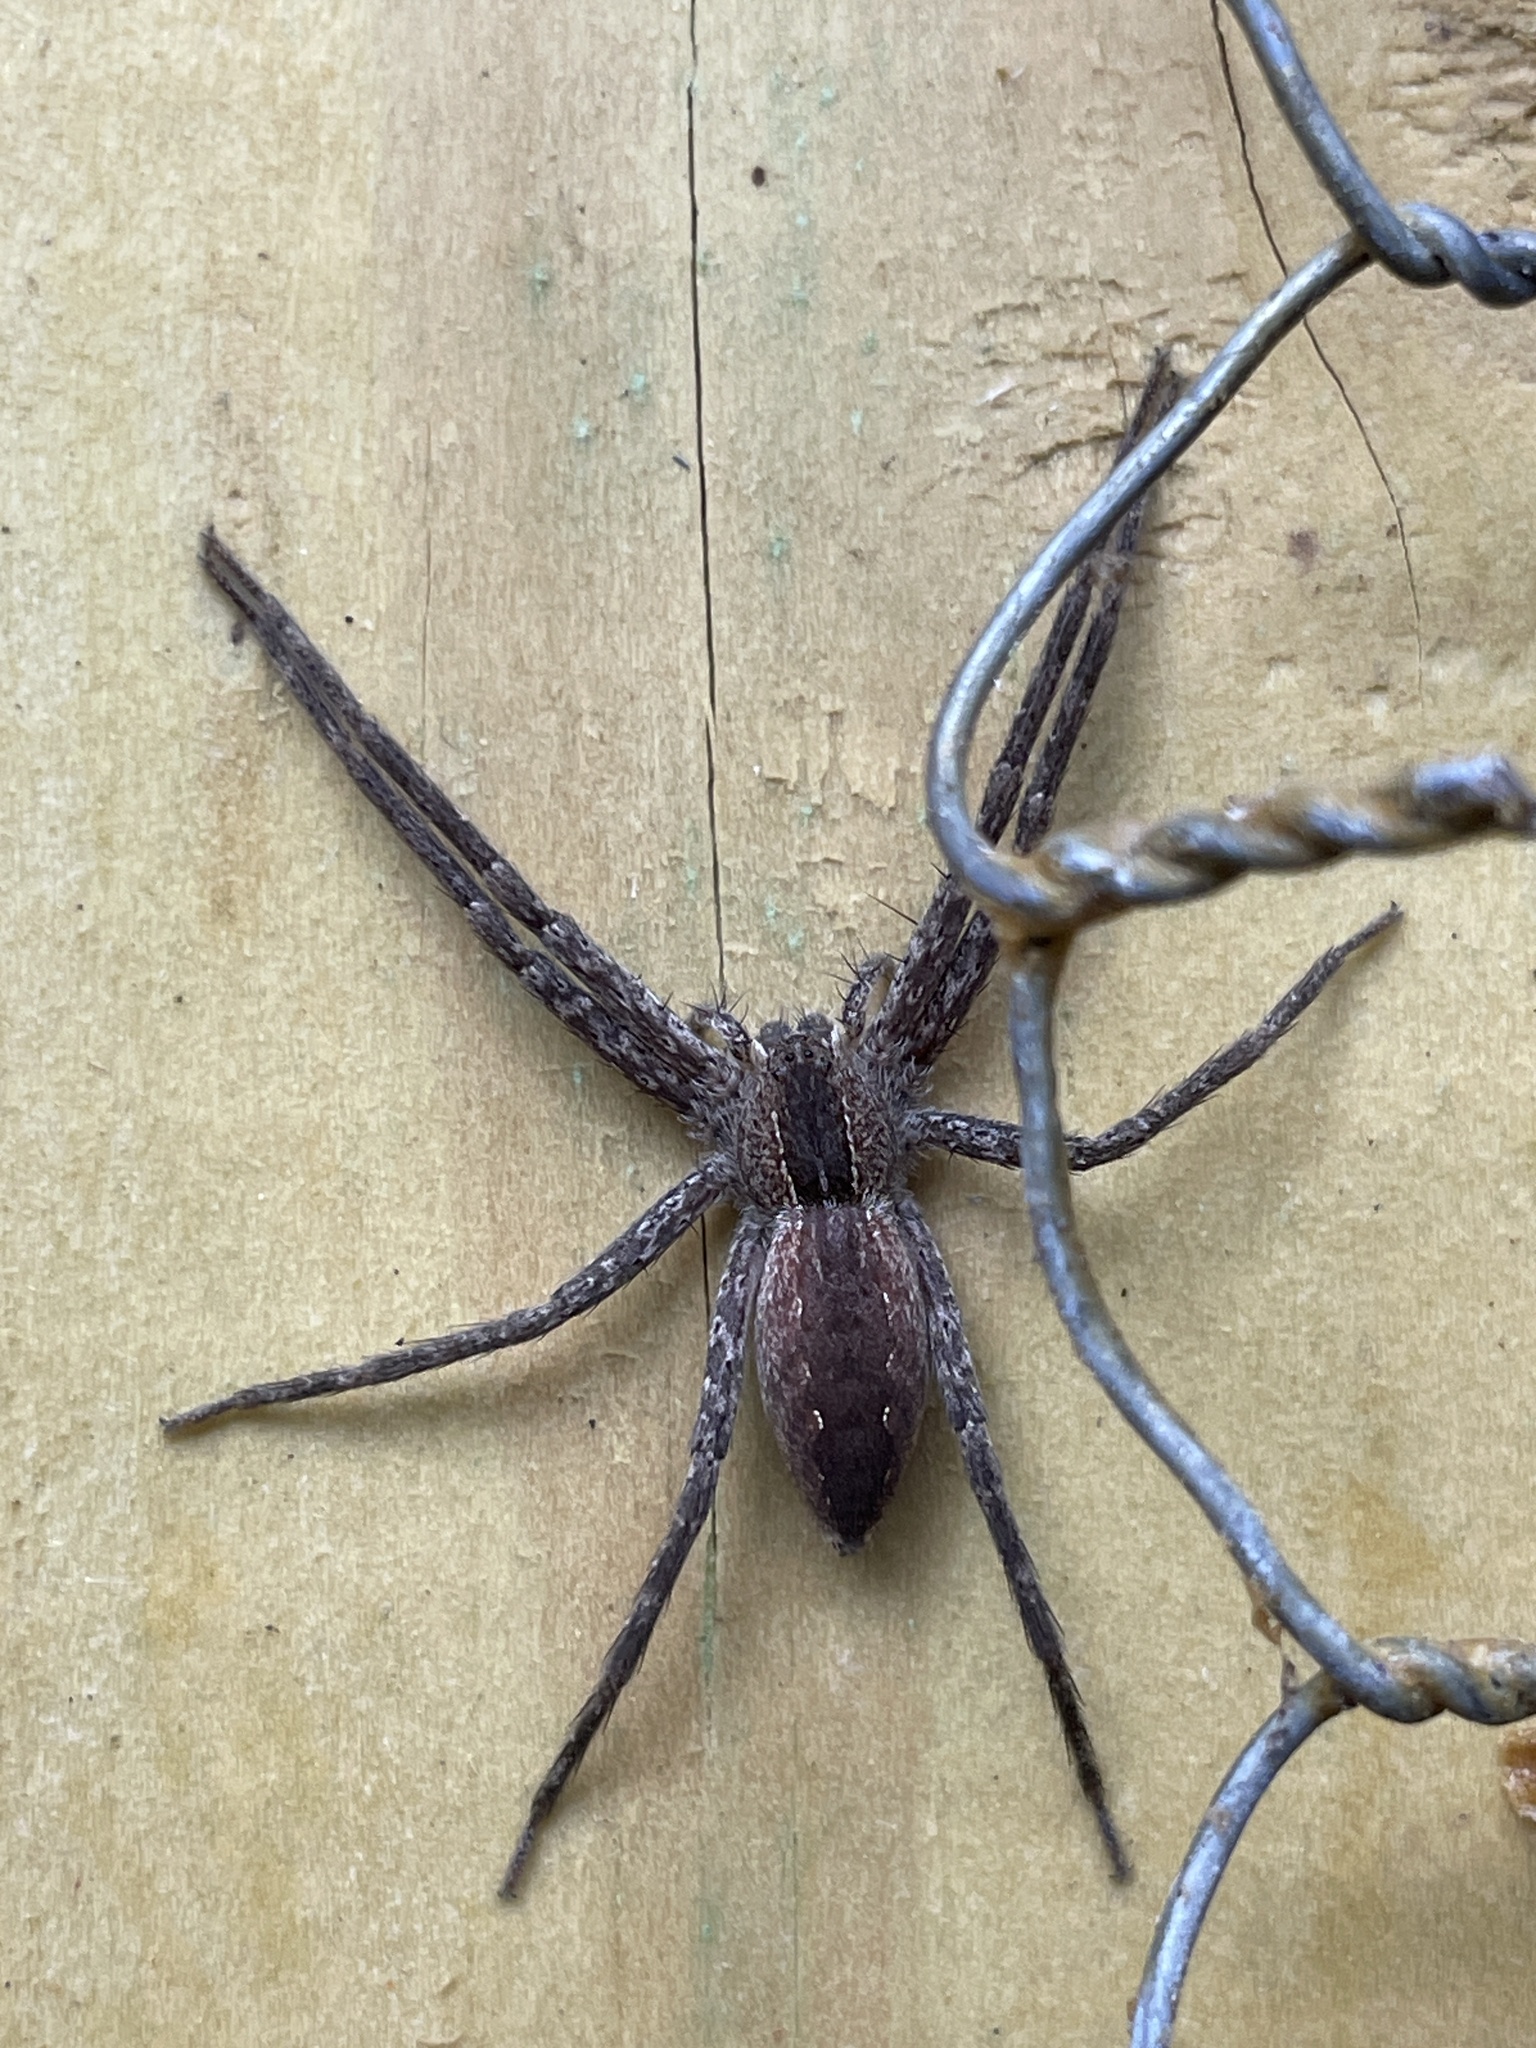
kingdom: Animalia
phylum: Arthropoda
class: Arachnida
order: Araneae
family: Pisauridae
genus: Pisaurina
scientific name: Pisaurina mira
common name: American nursery web spider
